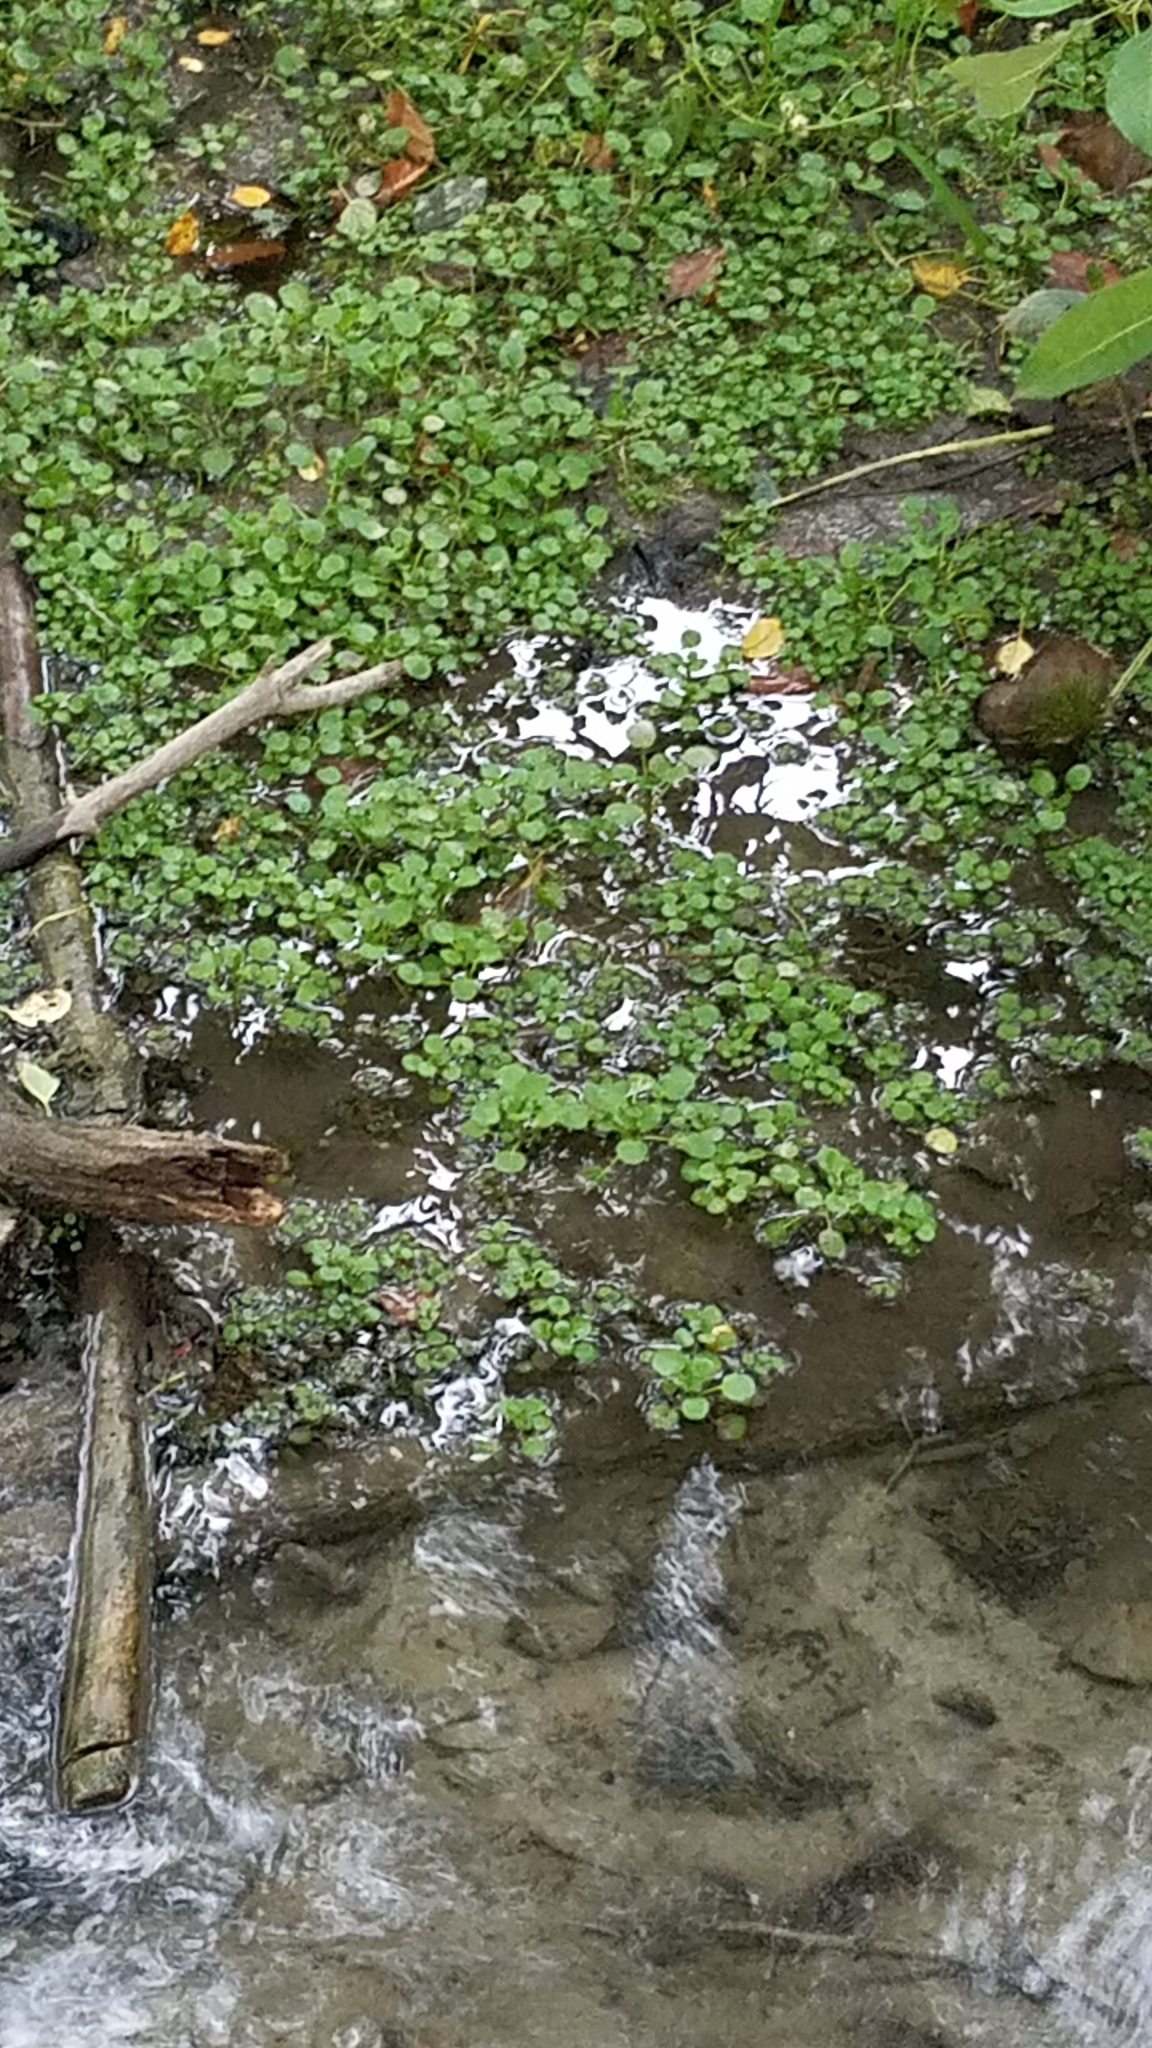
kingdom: Plantae
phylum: Tracheophyta
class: Magnoliopsida
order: Brassicales
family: Brassicaceae
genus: Nasturtium
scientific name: Nasturtium officinale
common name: Watercress
